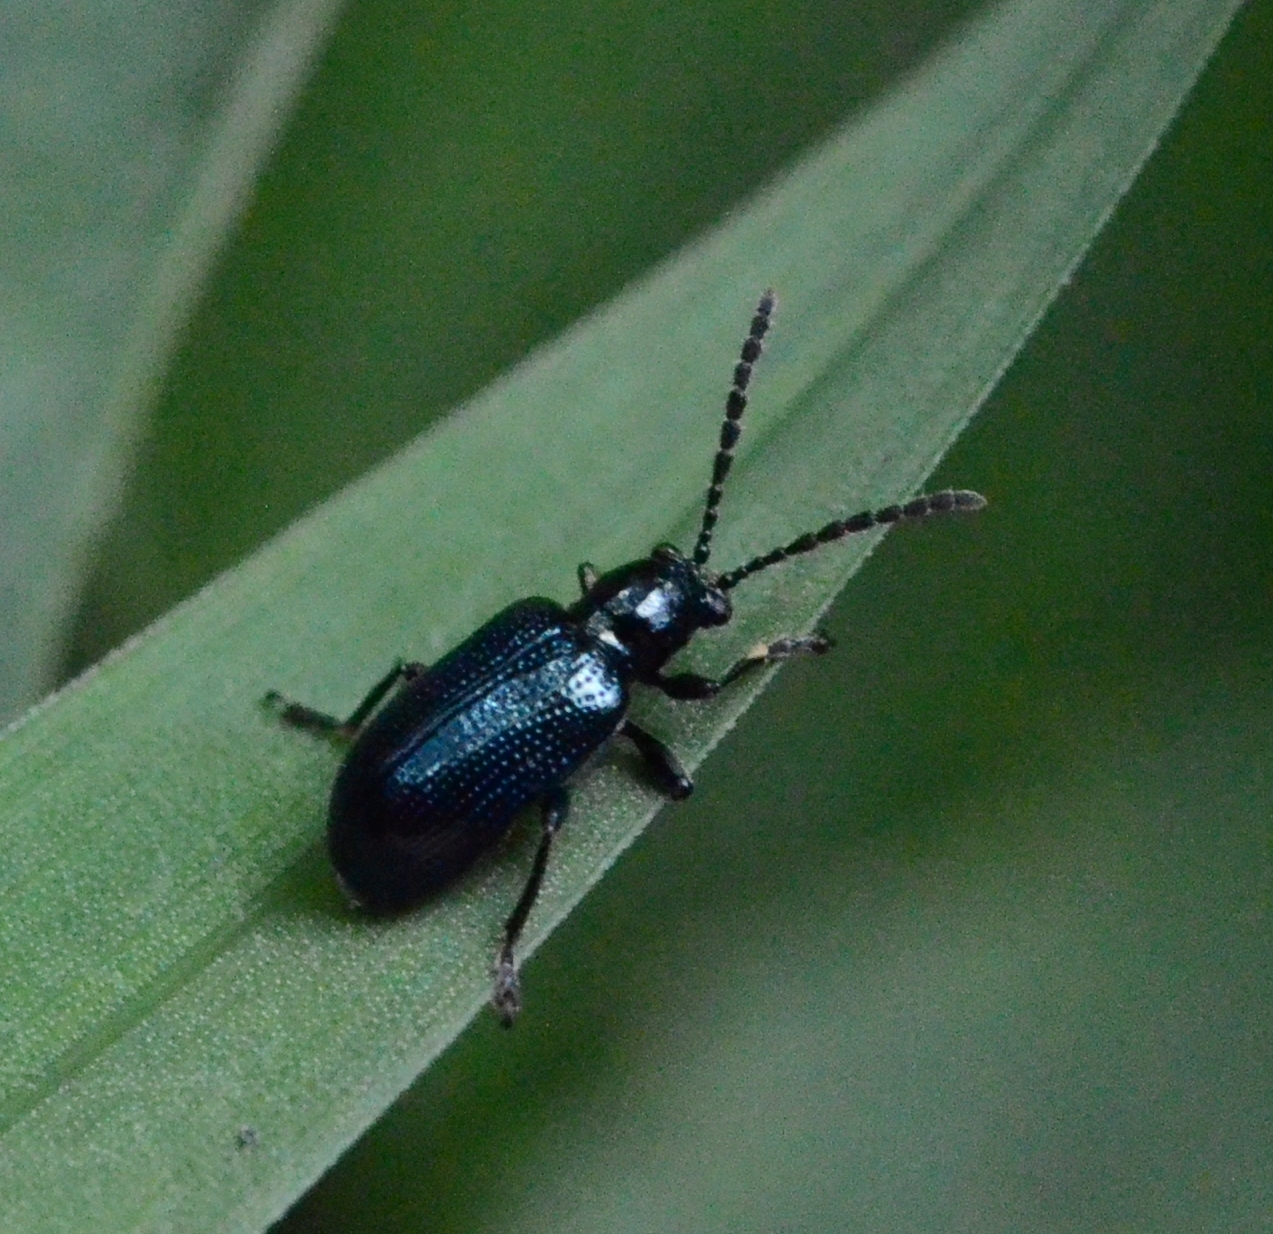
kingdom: Animalia
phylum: Arthropoda
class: Insecta
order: Coleoptera
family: Chrysomelidae
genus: Oulema
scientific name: Oulema gallaeciana
